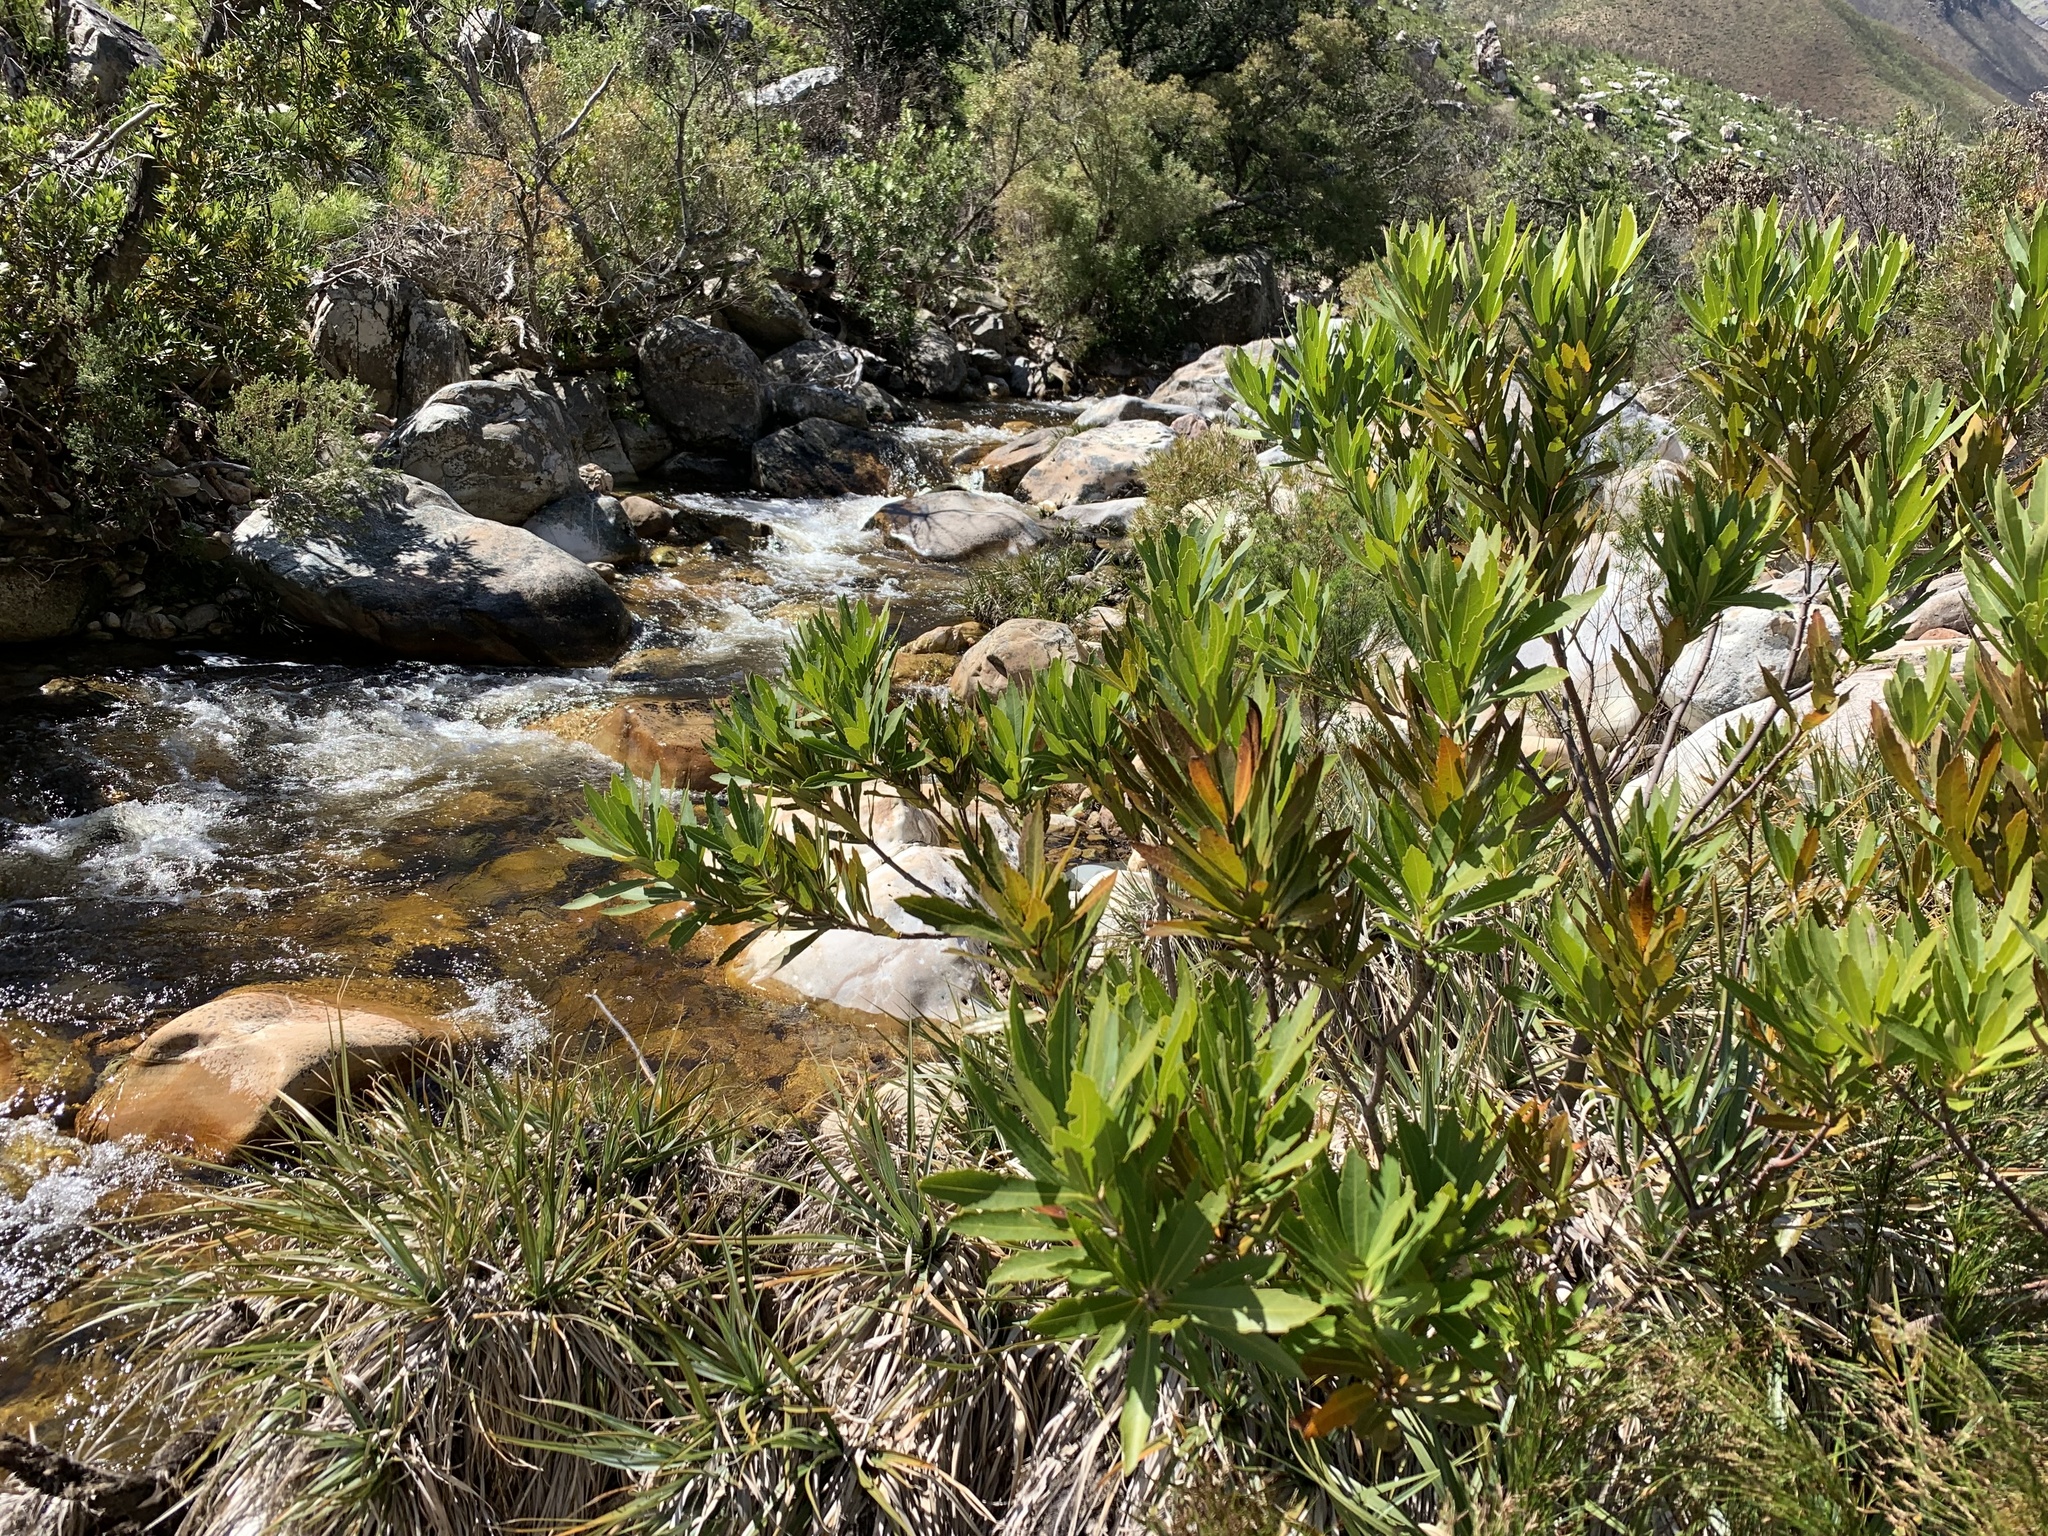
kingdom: Plantae
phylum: Tracheophyta
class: Magnoliopsida
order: Proteales
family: Proteaceae
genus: Brabejum
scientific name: Brabejum stellatifolium
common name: Wild almond
